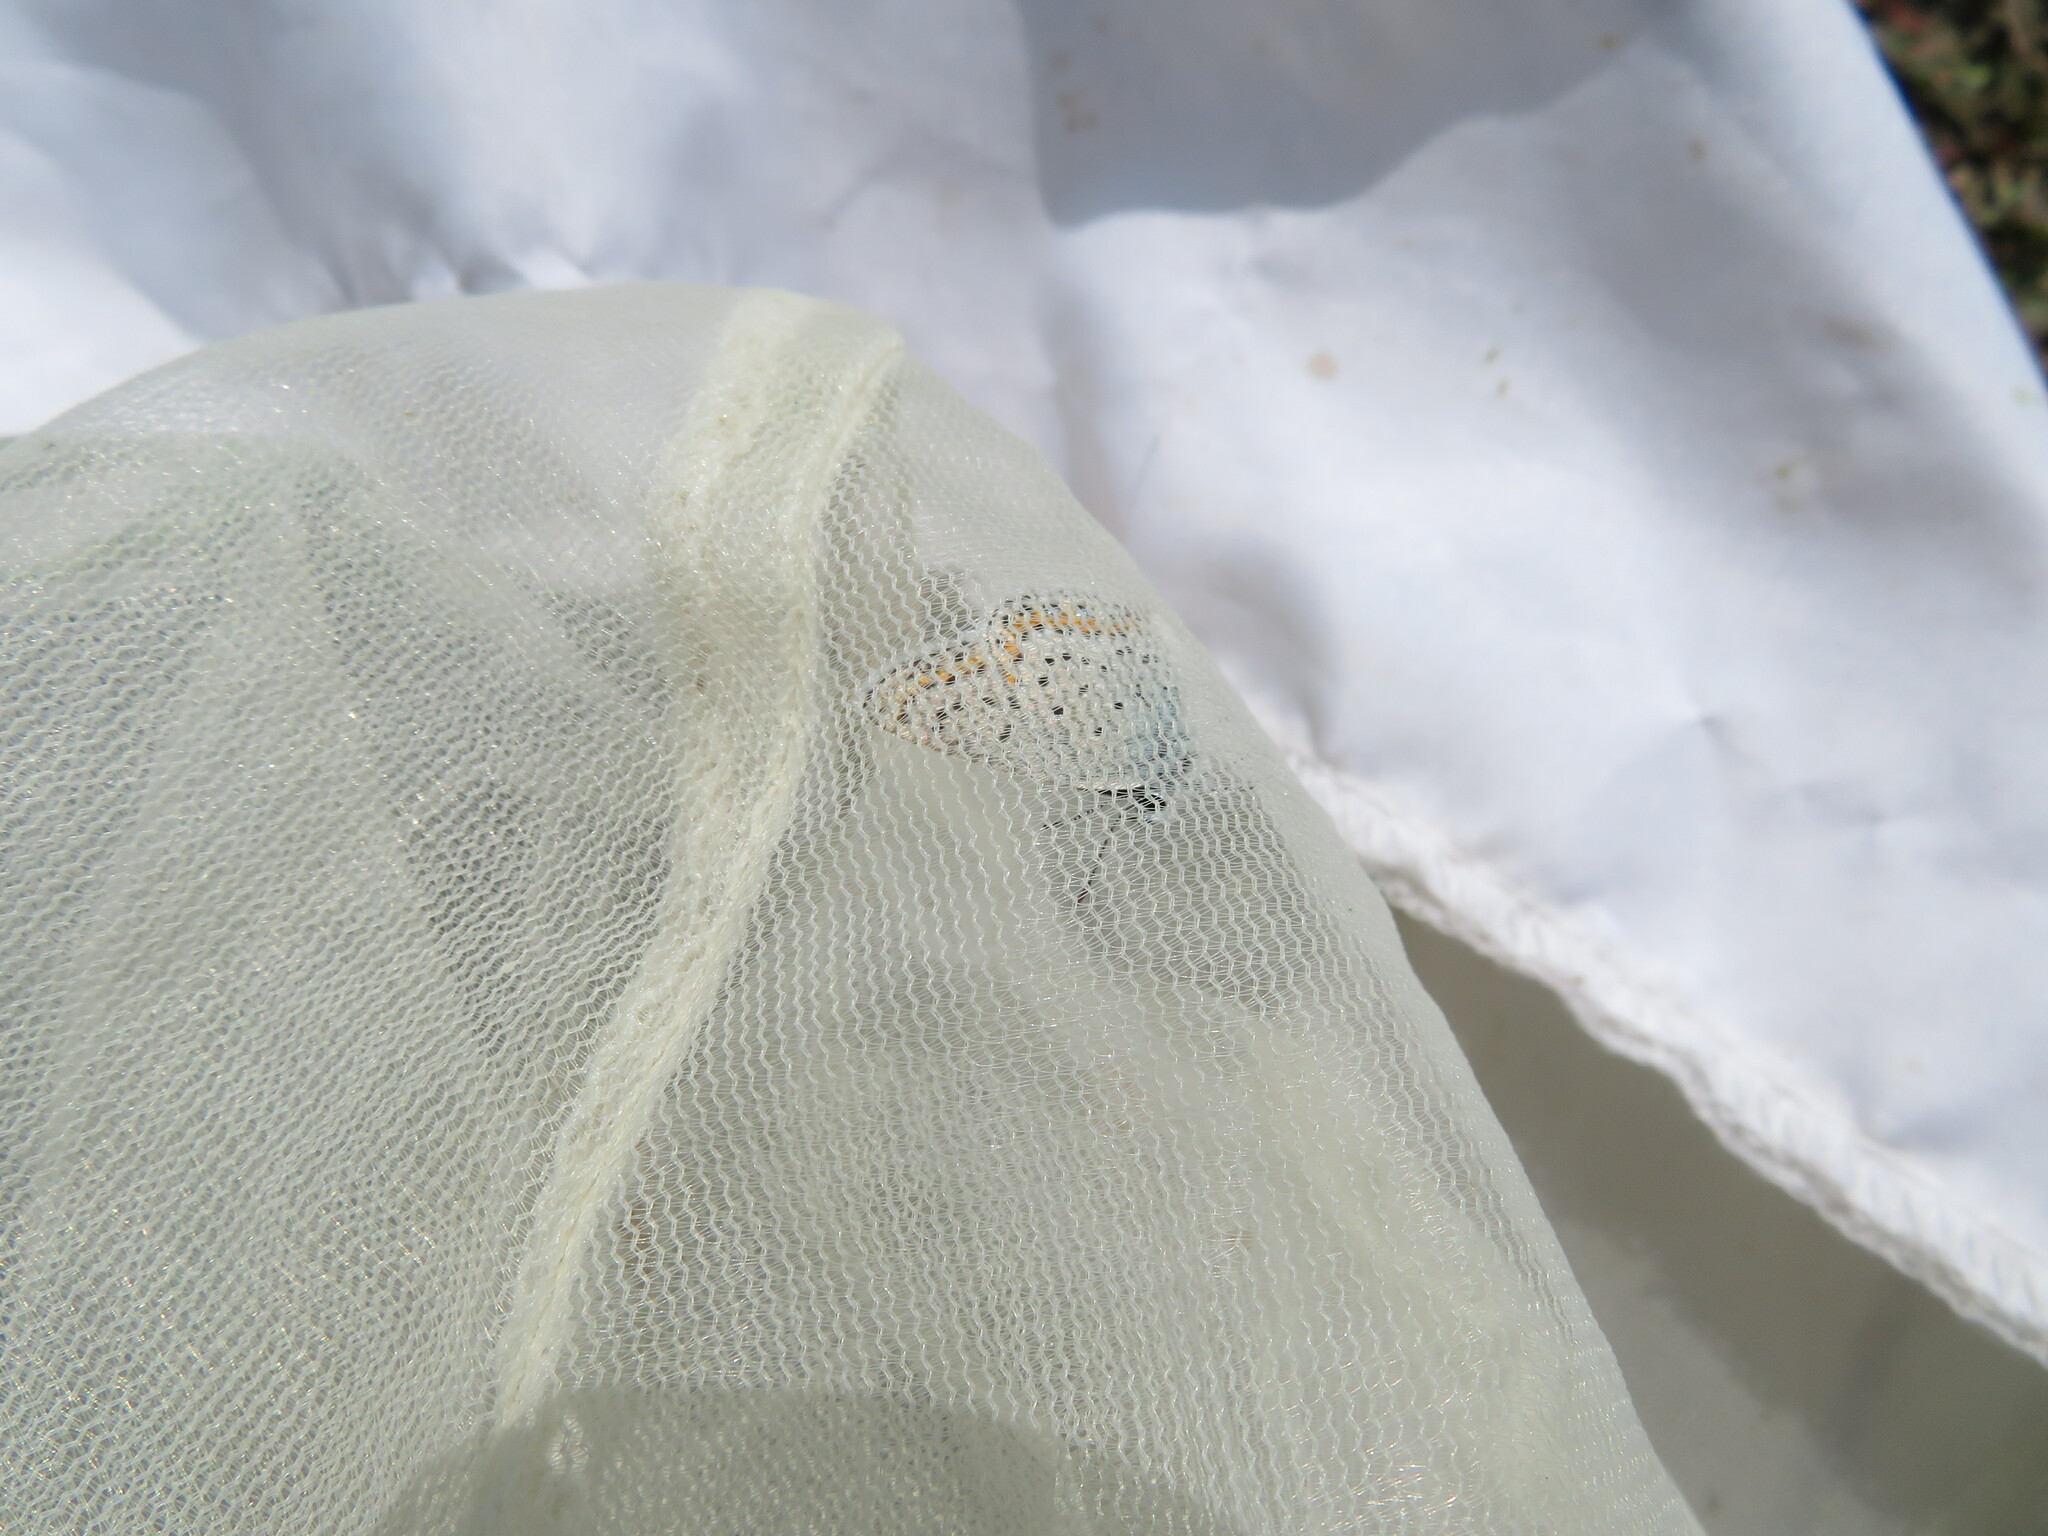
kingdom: Animalia
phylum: Arthropoda
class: Insecta
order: Lepidoptera
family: Lycaenidae
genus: Lycaeides
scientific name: Lycaeides melissa
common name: Melissa blue
